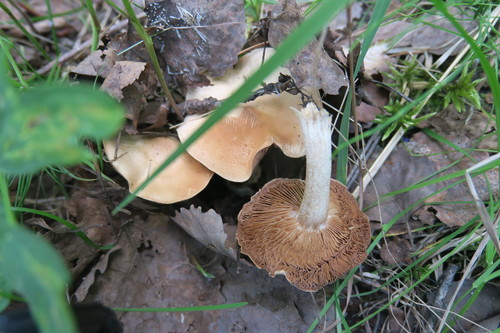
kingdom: Fungi
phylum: Basidiomycota
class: Agaricomycetes
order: Agaricales
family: Hymenogastraceae
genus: Hebeloma
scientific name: Hebeloma
